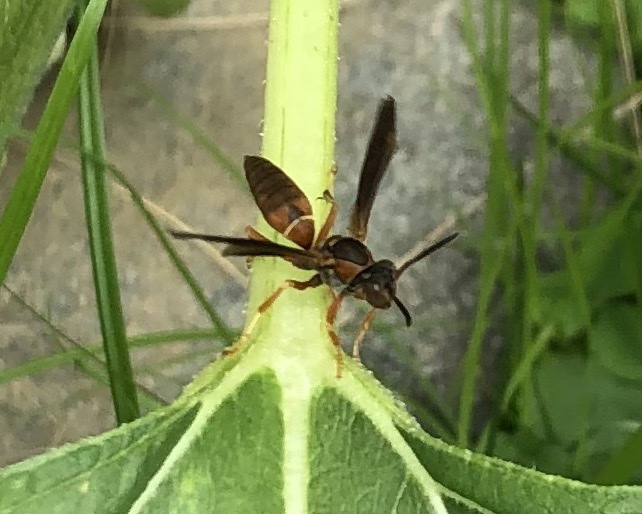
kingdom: Animalia
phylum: Arthropoda
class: Insecta
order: Hymenoptera
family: Eumenidae
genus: Polistes
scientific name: Polistes fuscatus
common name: Dark paper wasp
